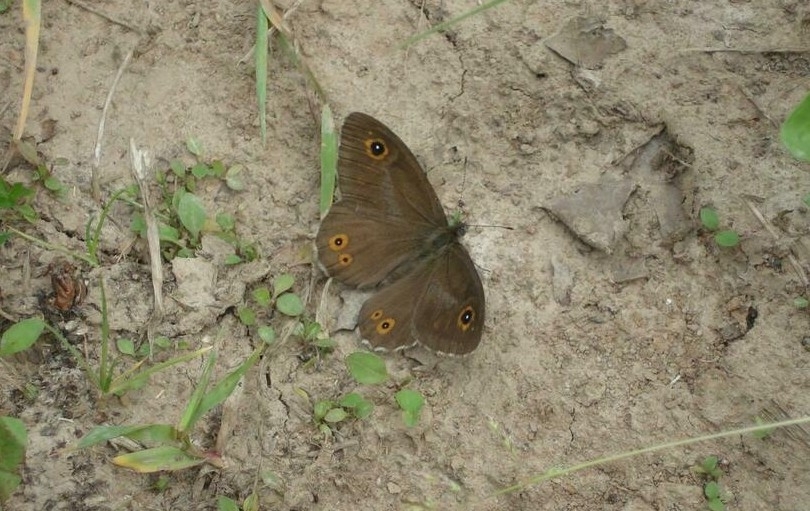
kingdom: Animalia
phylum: Arthropoda
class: Insecta
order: Lepidoptera
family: Nymphalidae
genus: Pararge
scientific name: Pararge Lasiommata maera
